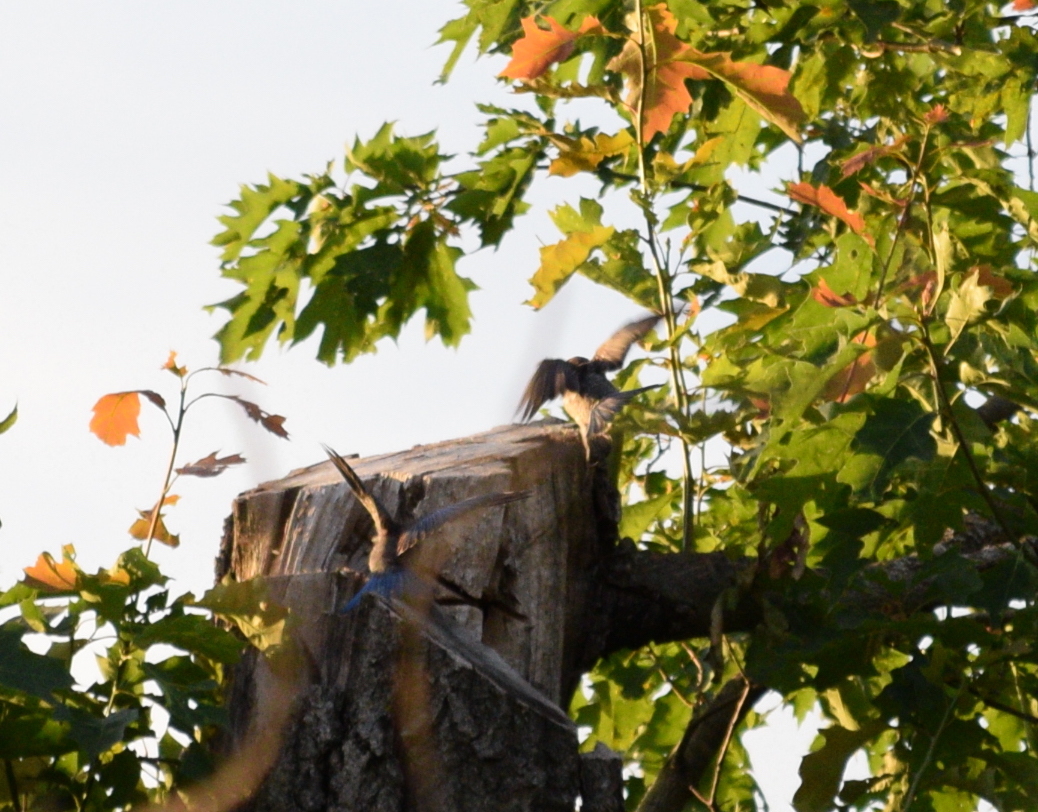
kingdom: Animalia
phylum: Chordata
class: Aves
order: Passeriformes
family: Turdidae
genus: Sialia
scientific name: Sialia sialis
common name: Eastern bluebird
